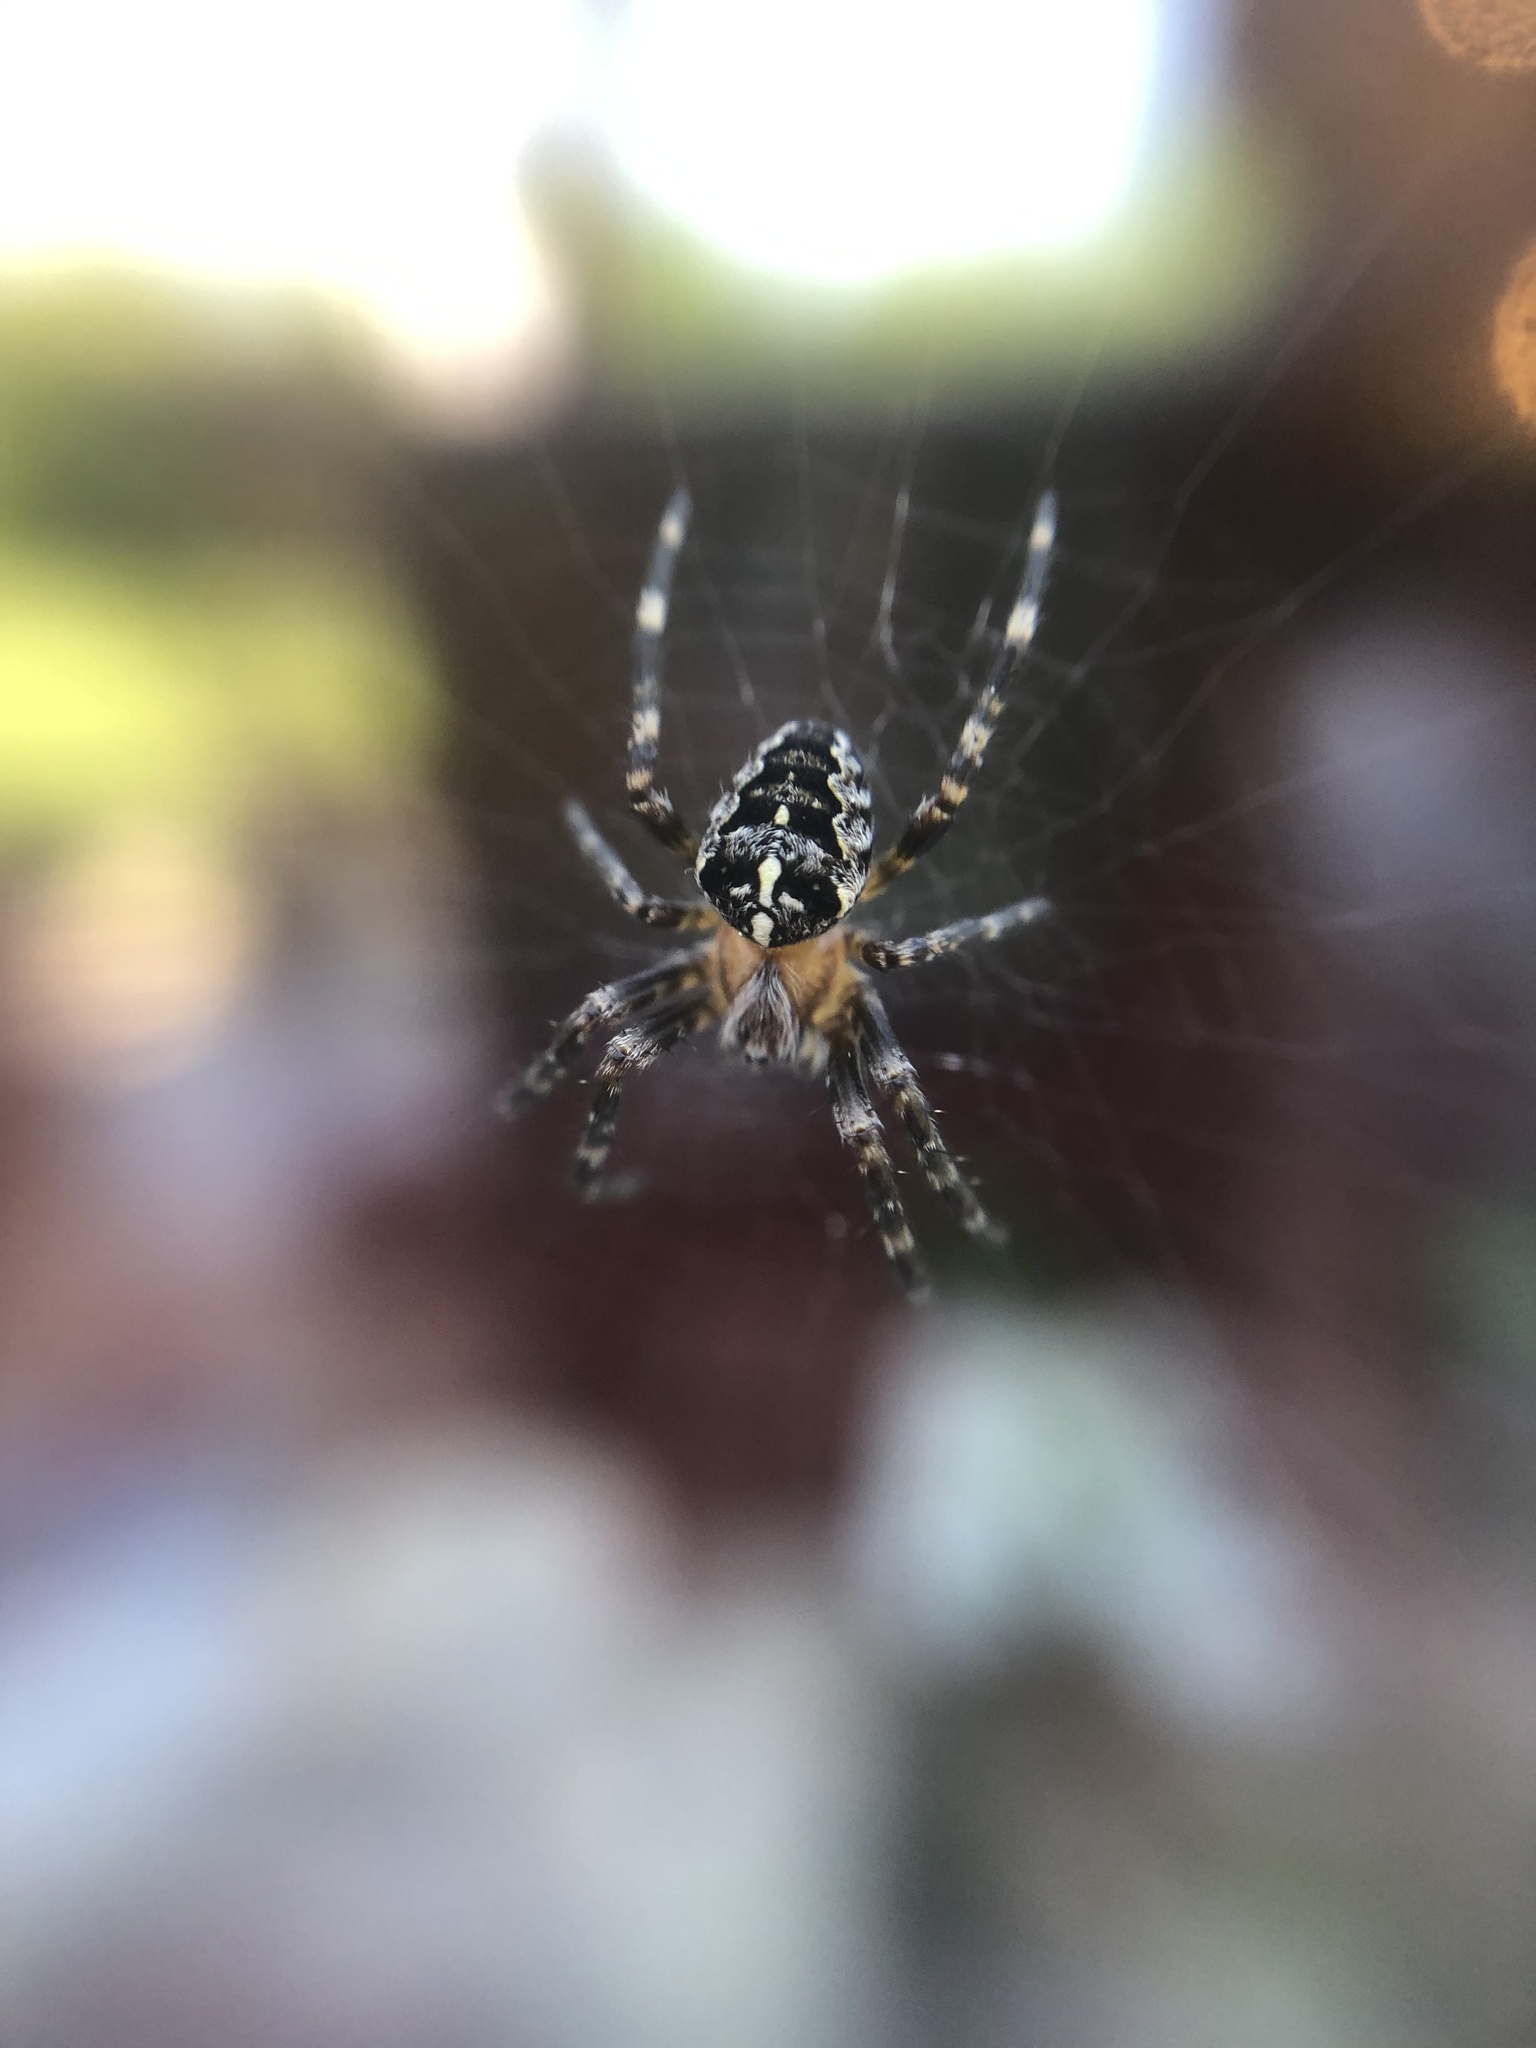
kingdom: Animalia
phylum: Arthropoda
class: Arachnida
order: Araneae
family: Araneidae
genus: Araneus
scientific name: Araneus diadematus
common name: Cross orbweaver
